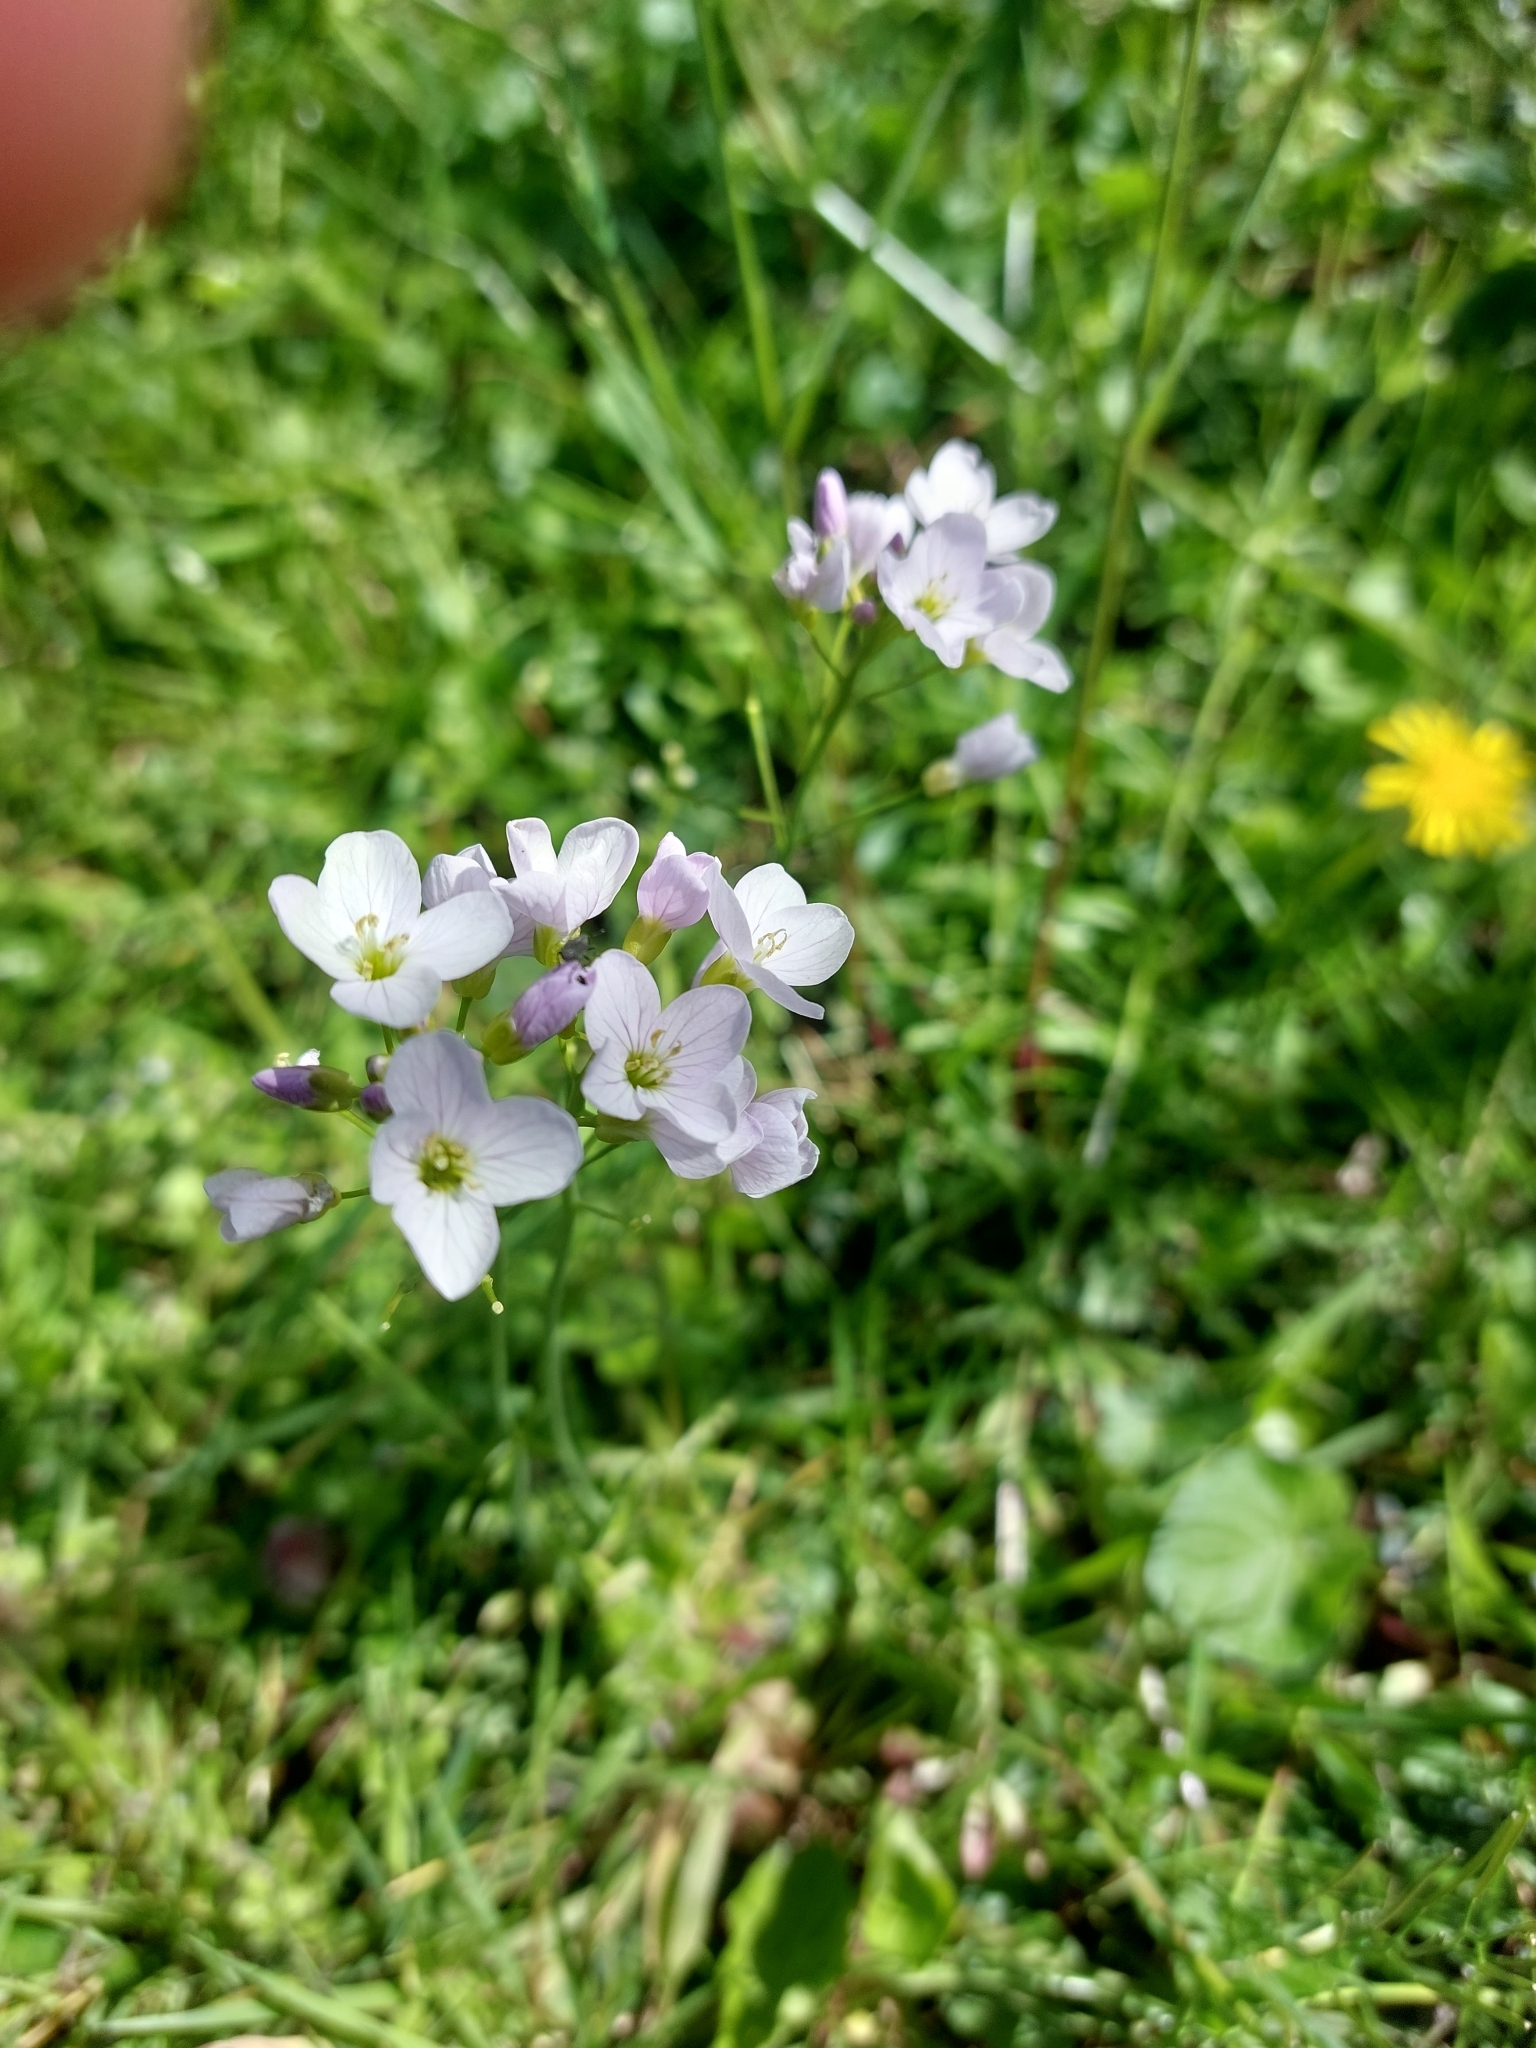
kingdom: Plantae
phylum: Tracheophyta
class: Magnoliopsida
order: Brassicales
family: Brassicaceae
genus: Cardamine
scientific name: Cardamine pratensis
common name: Cuckoo flower
